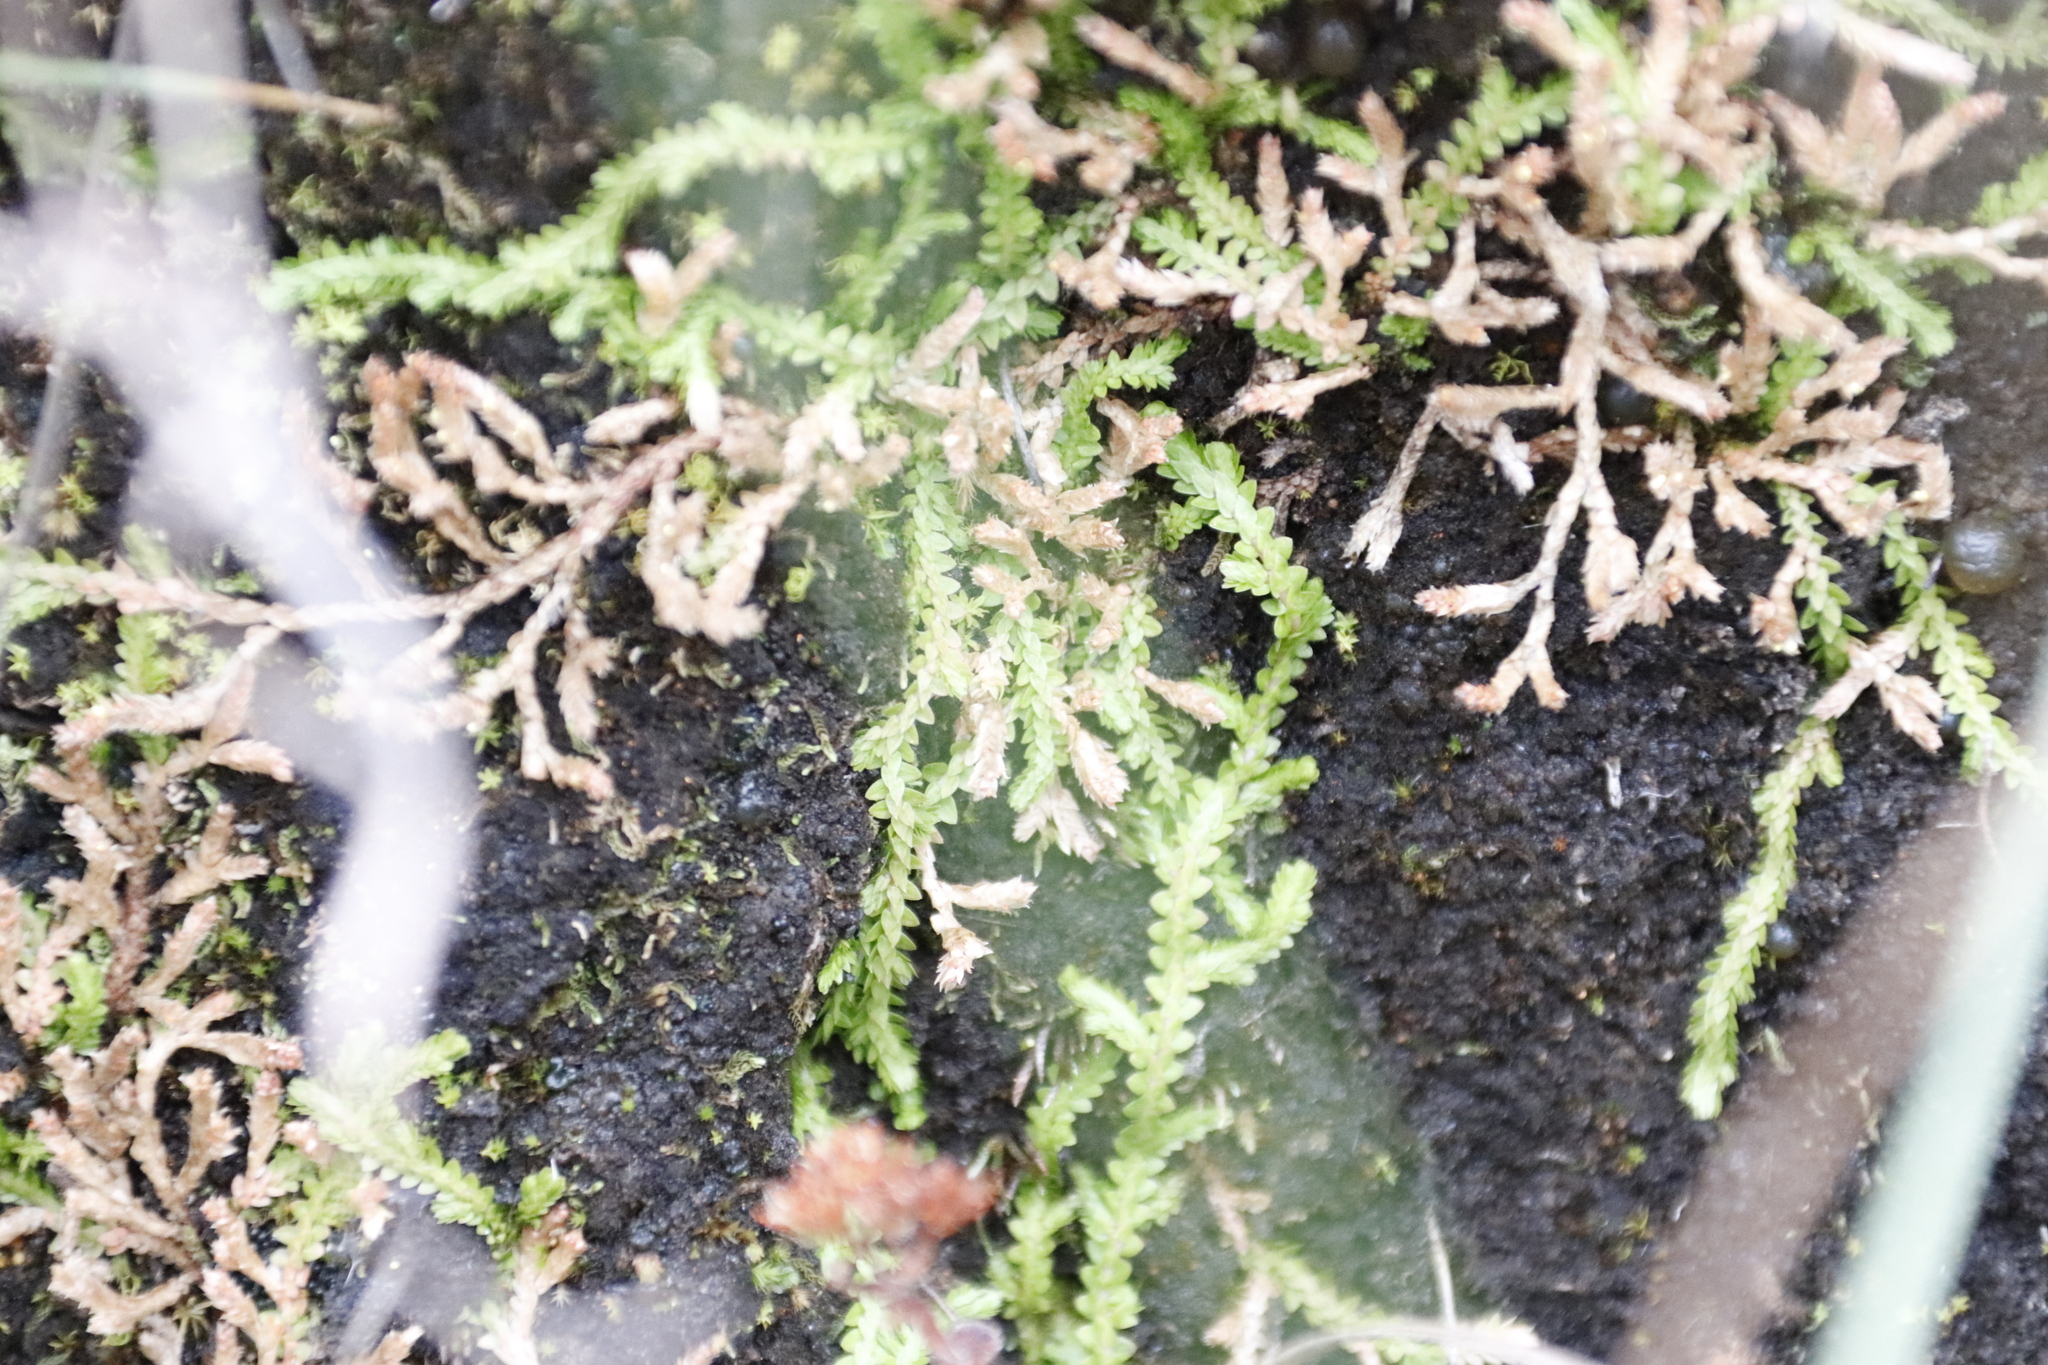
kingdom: Plantae
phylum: Tracheophyta
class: Lycopodiopsida
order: Selaginellales
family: Selaginellaceae
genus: Selaginella
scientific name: Selaginella mittenii
